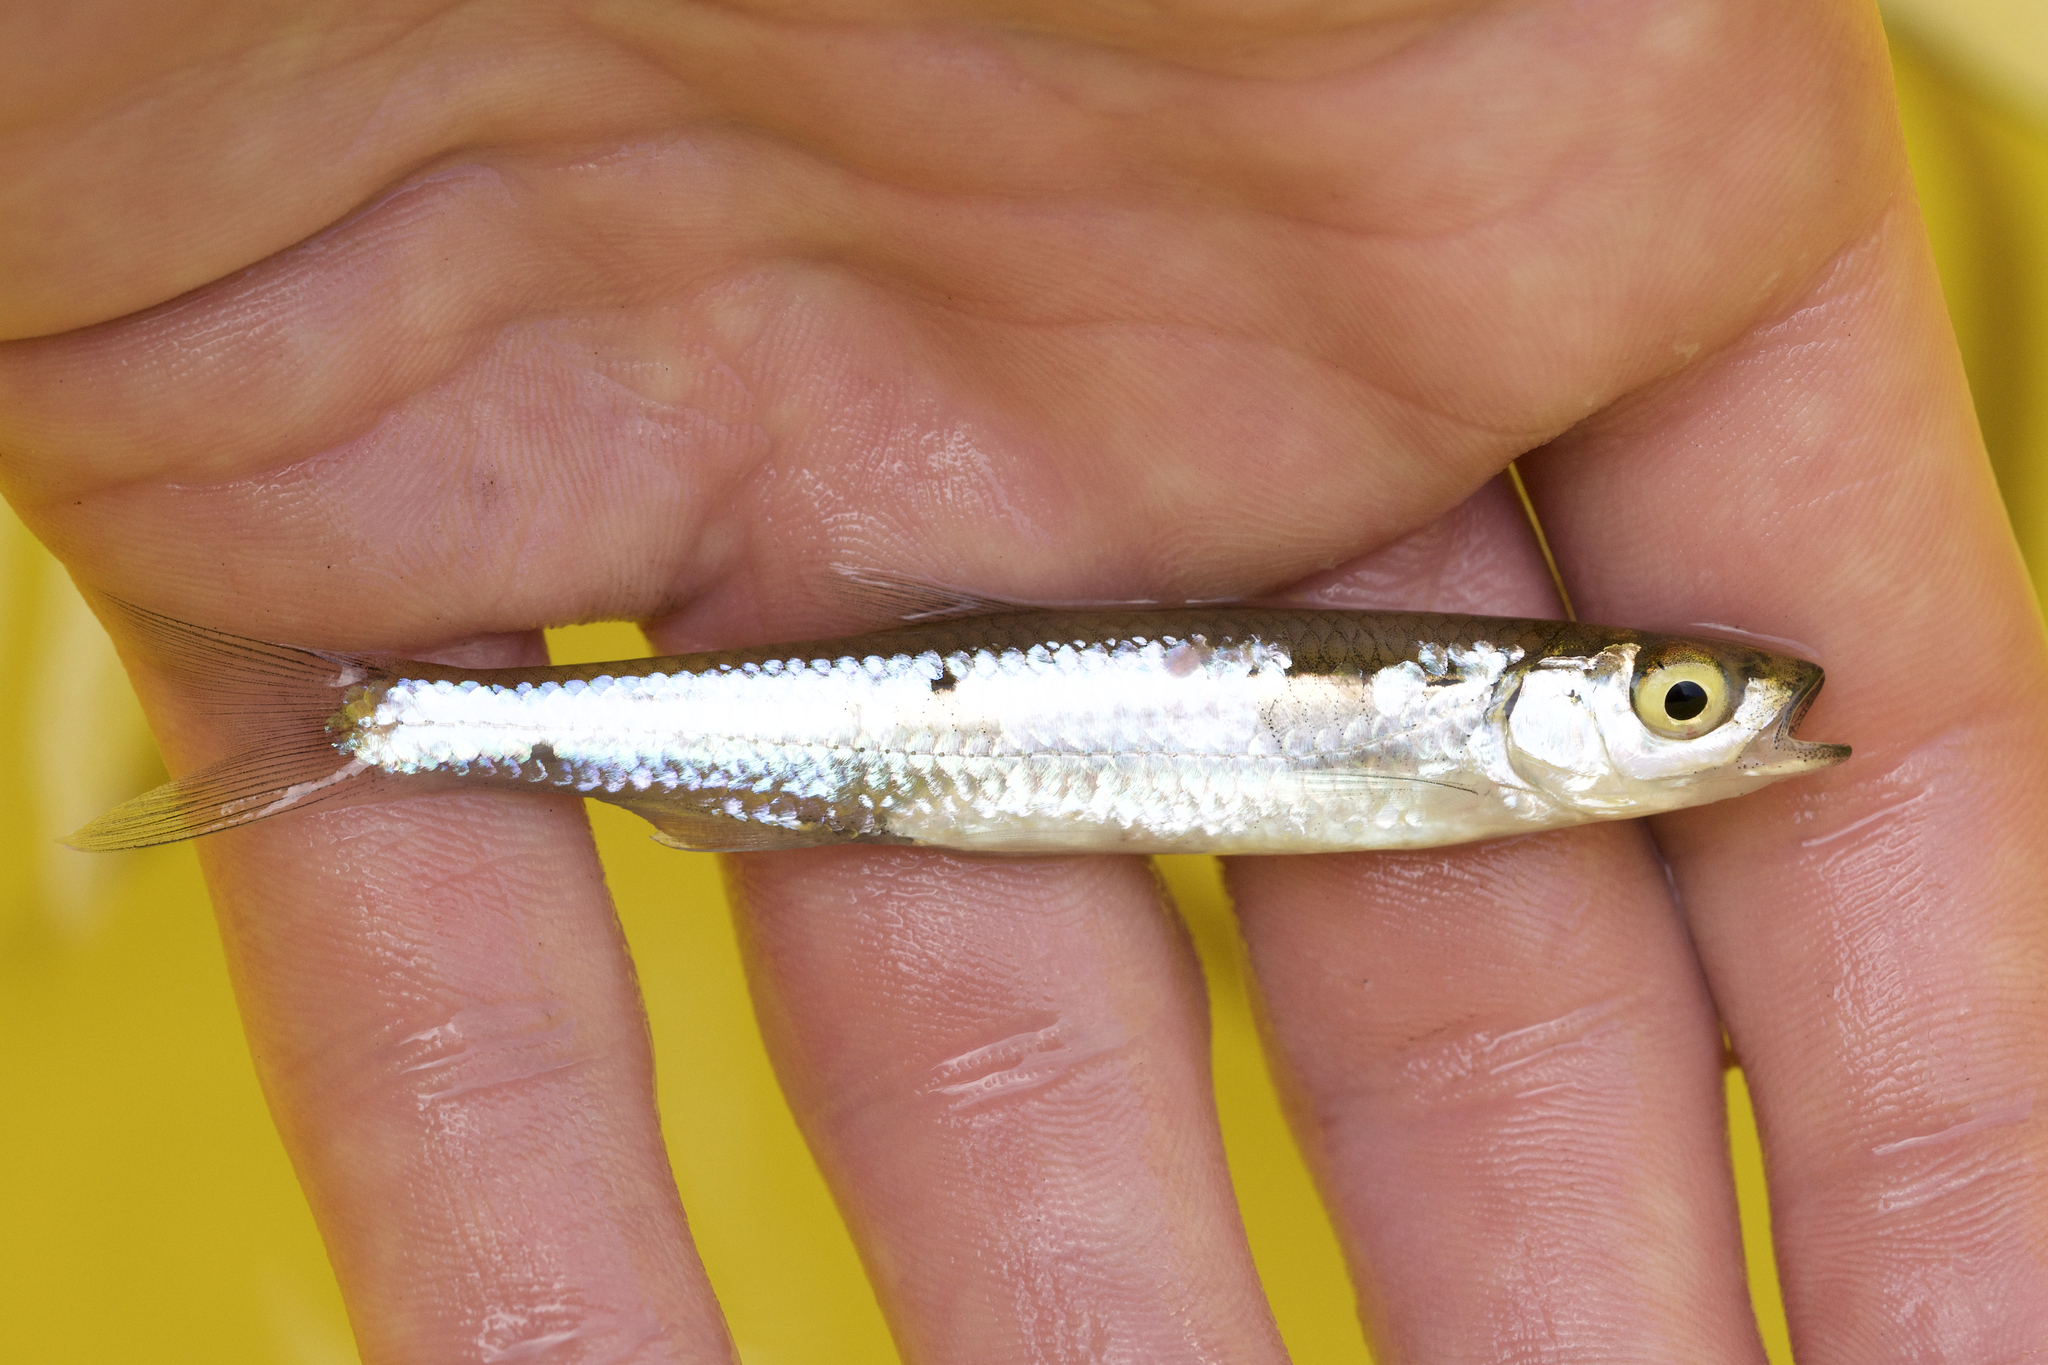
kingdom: Animalia
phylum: Chordata
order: Cypriniformes
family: Cyprinidae
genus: Notropis
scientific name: Notropis rubellus
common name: Rosyface shiner
